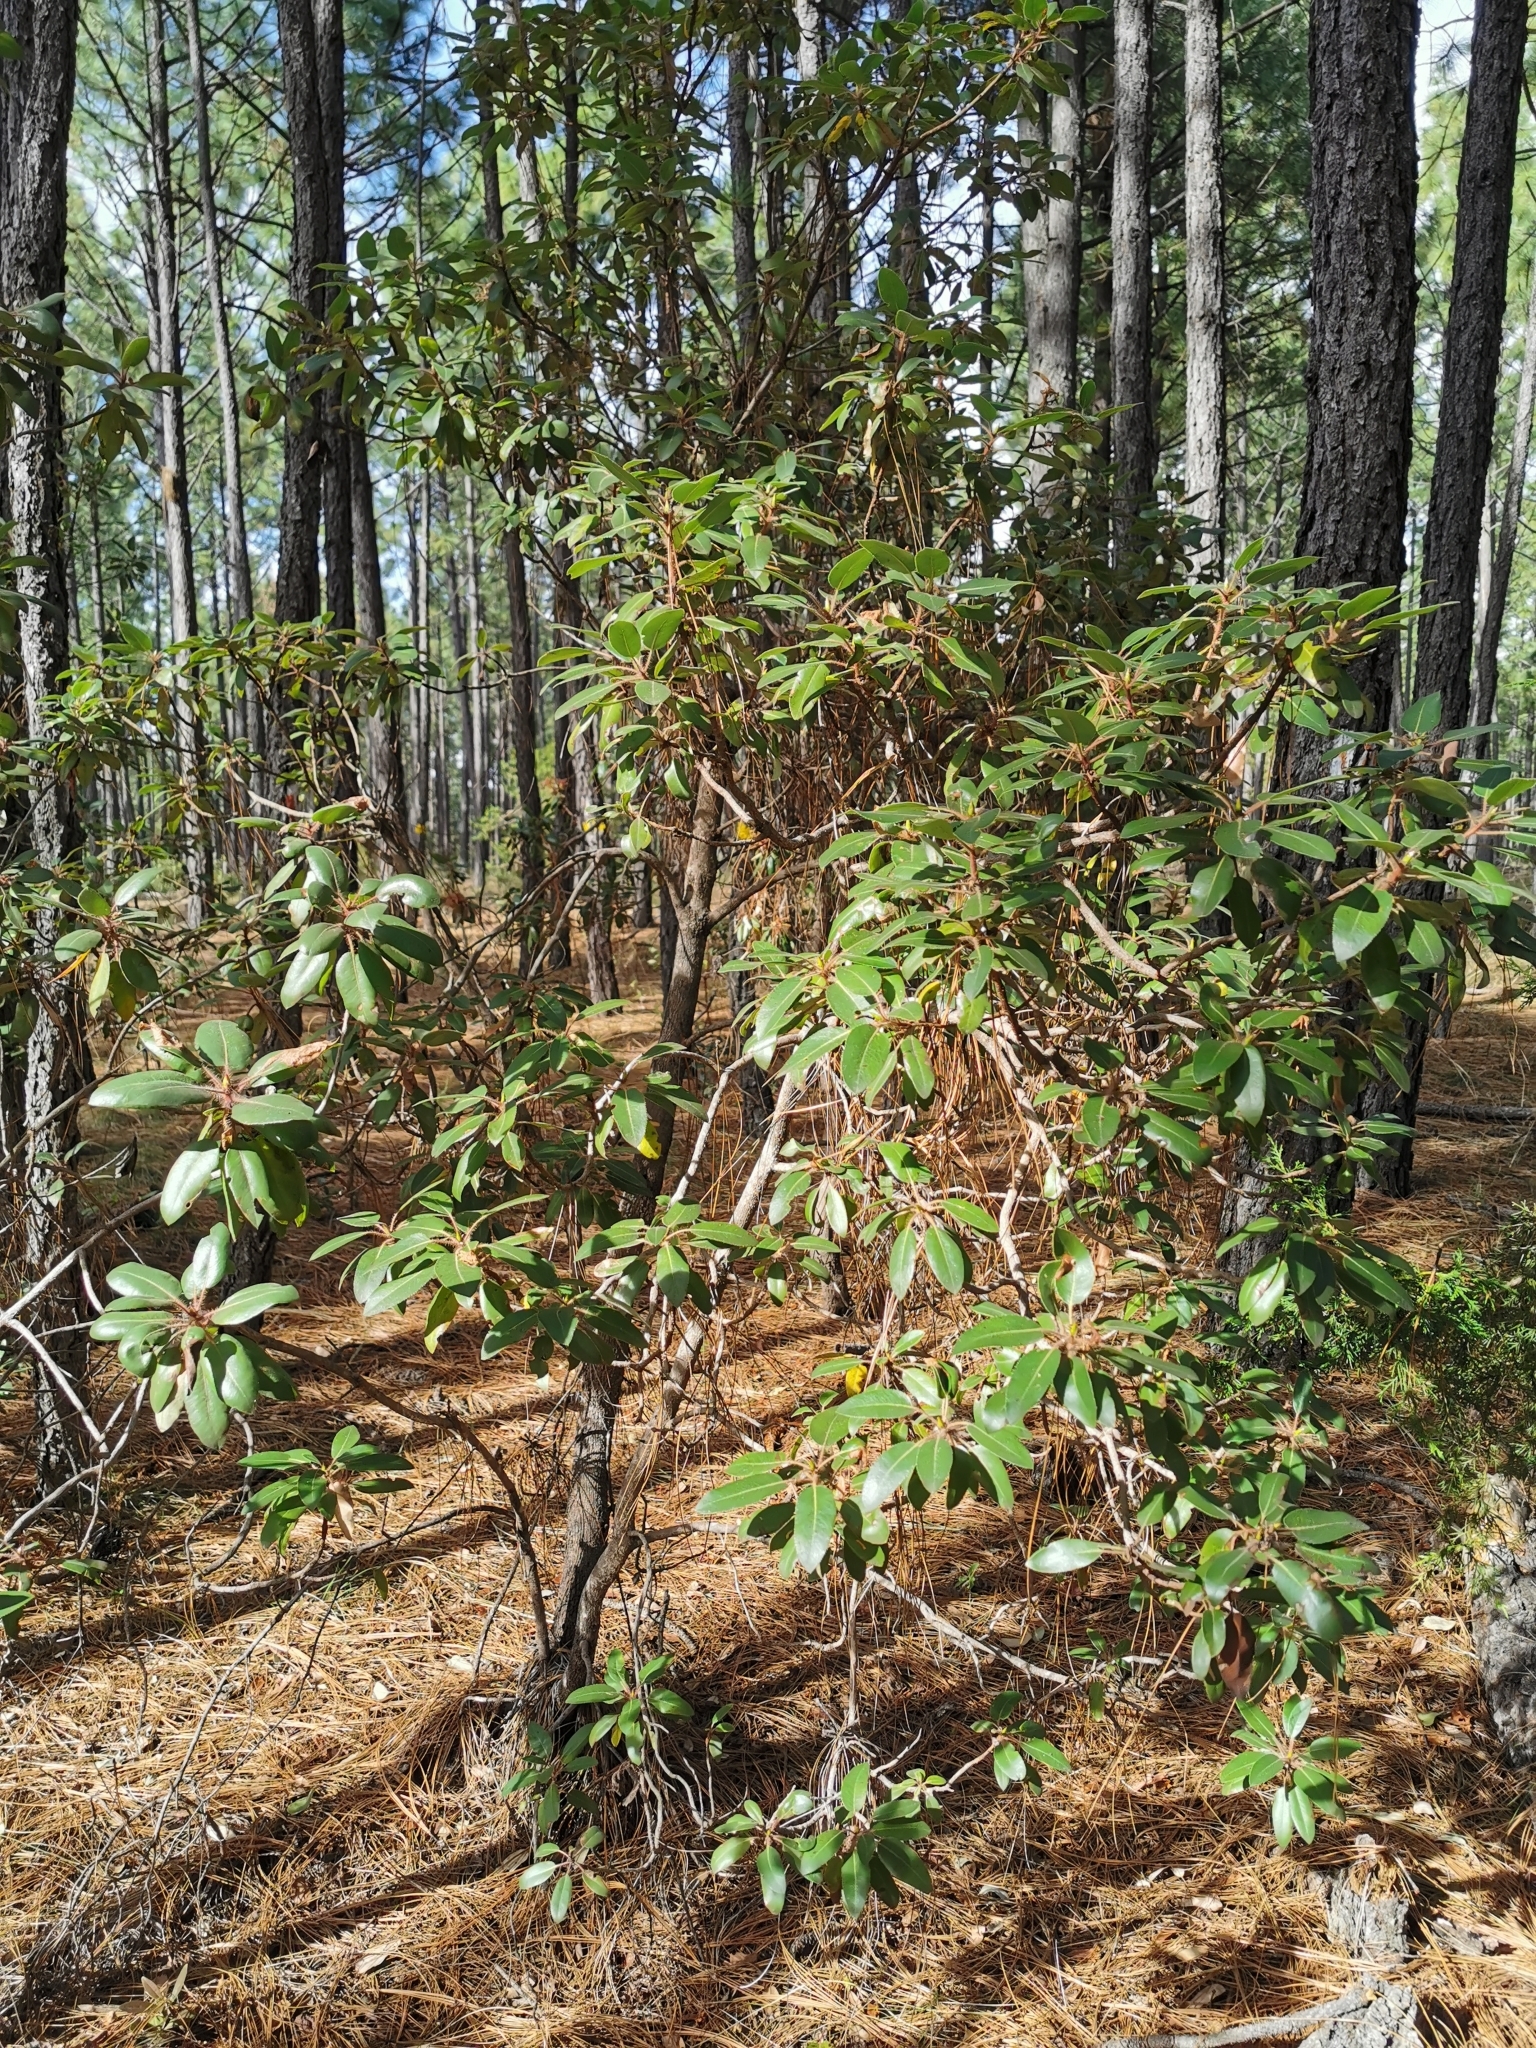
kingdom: Plantae
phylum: Tracheophyta
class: Magnoliopsida
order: Ericales
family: Ericaceae
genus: Arbutus
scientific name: Arbutus tessellata
